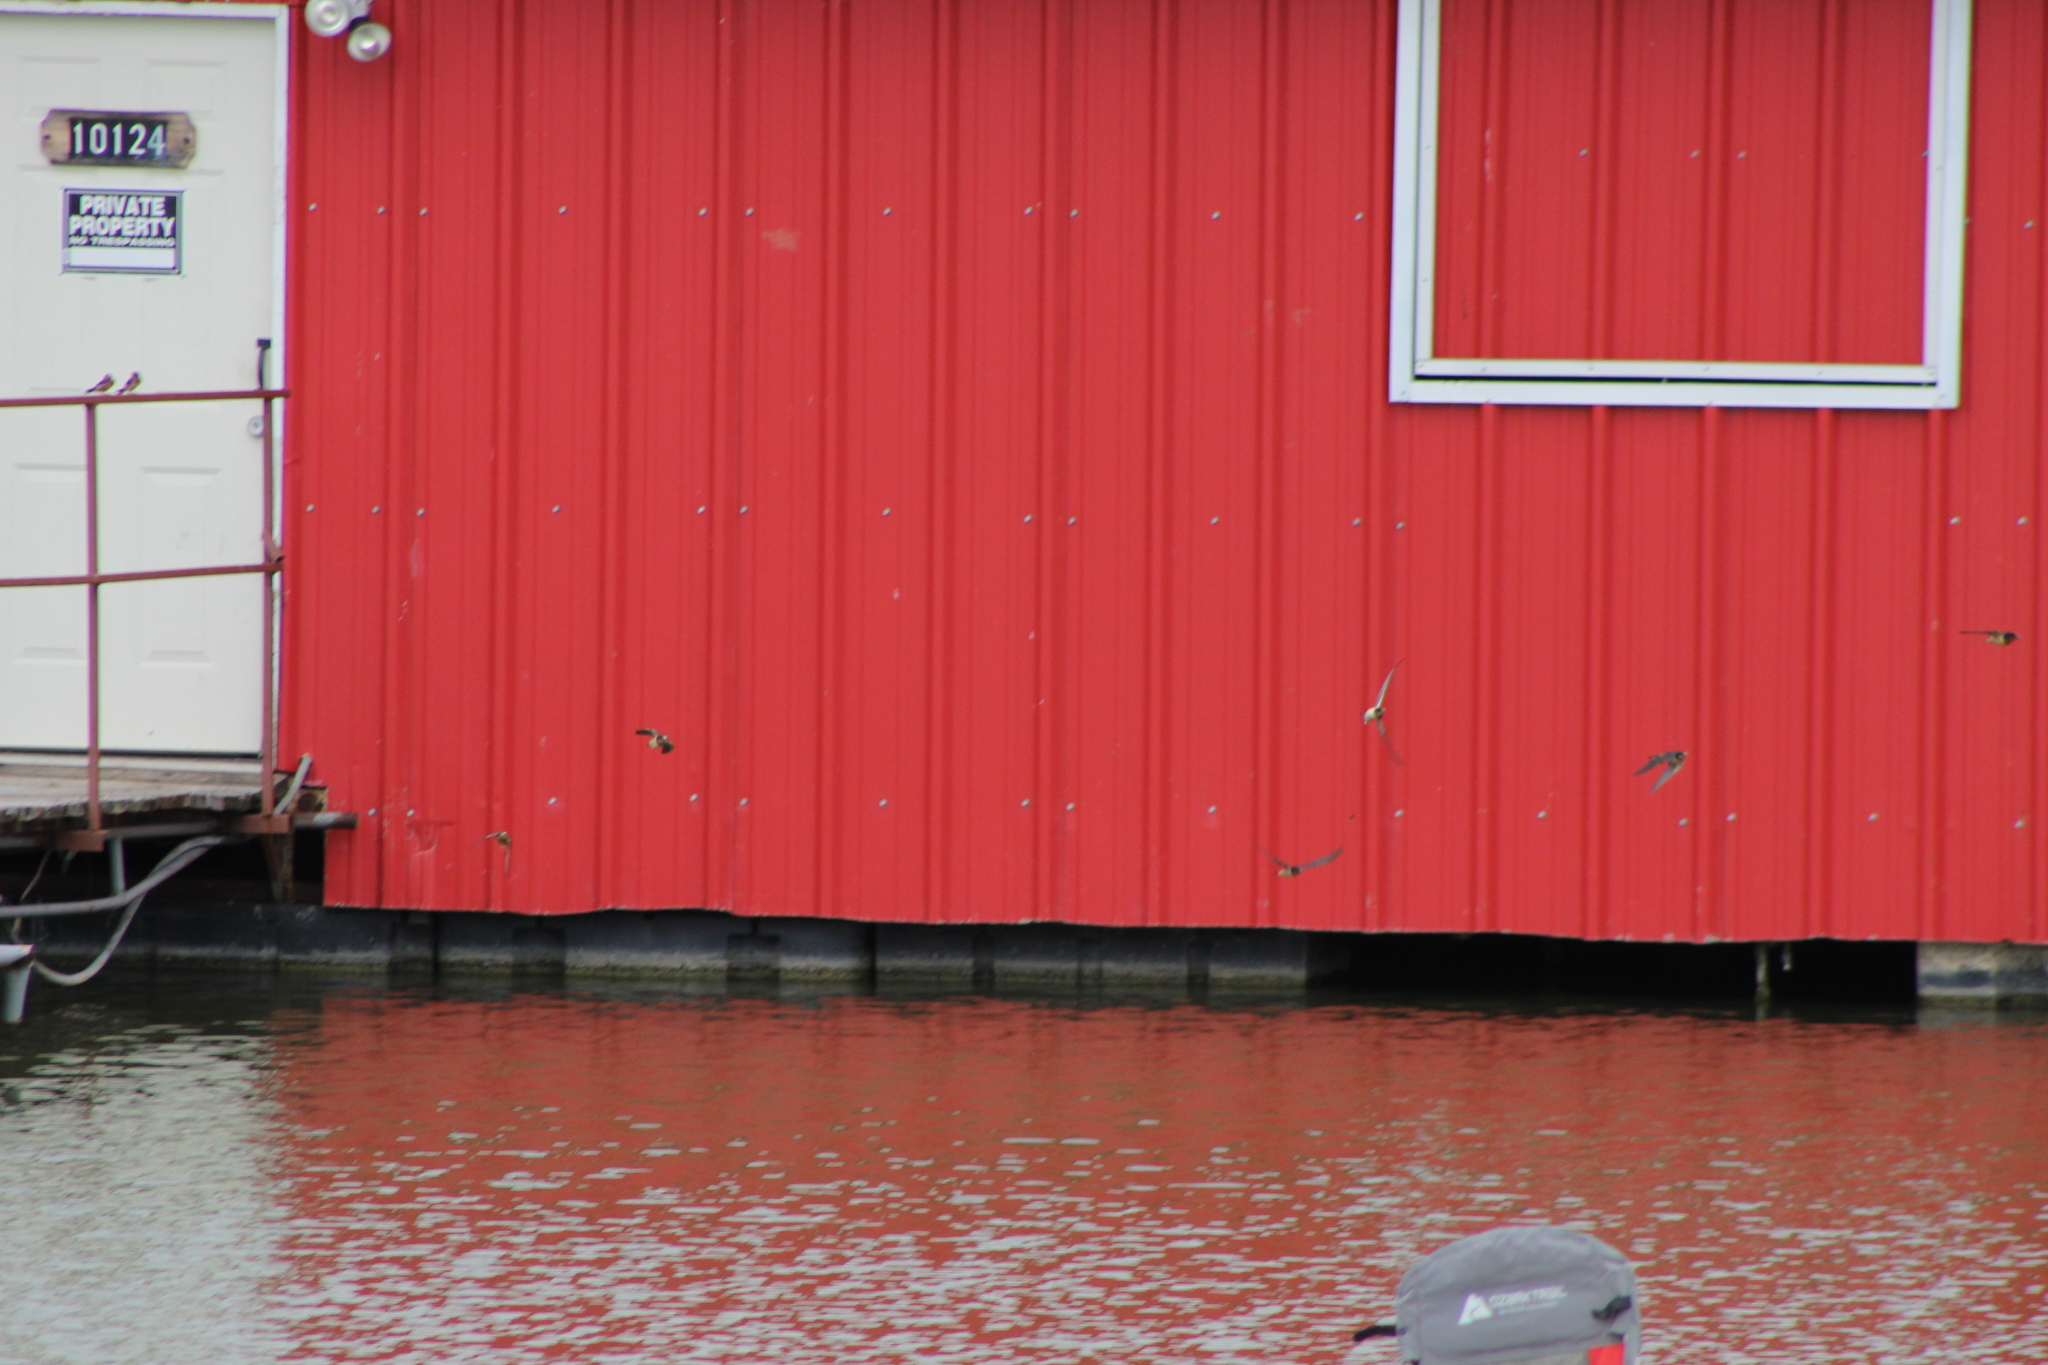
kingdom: Animalia
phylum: Chordata
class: Aves
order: Passeriformes
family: Hirundinidae
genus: Hirundo
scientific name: Hirundo rustica
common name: Barn swallow
